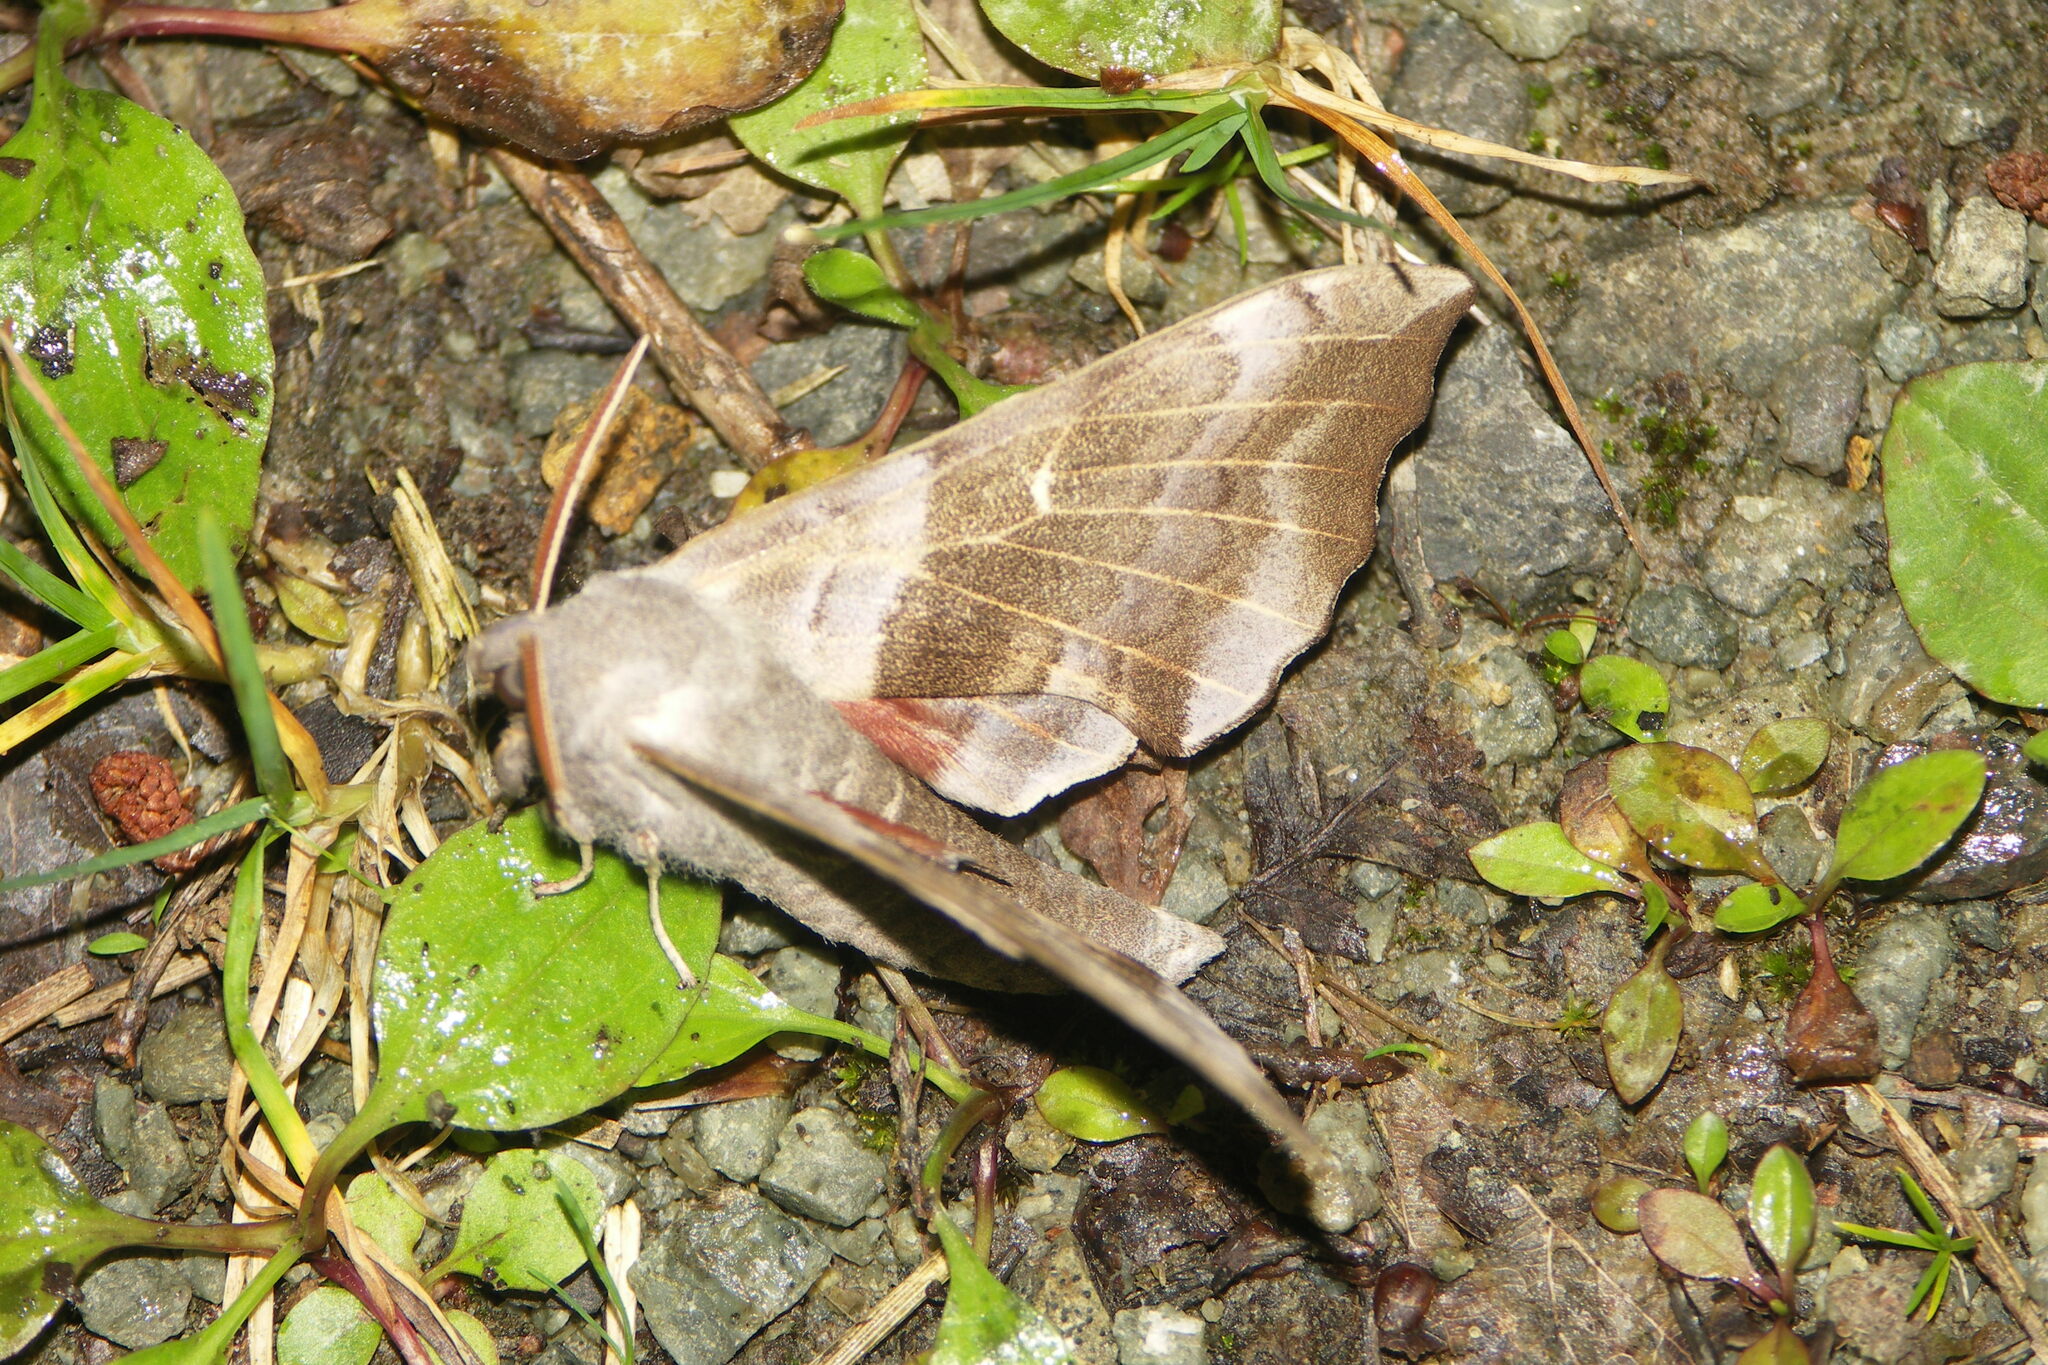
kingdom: Animalia
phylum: Arthropoda
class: Insecta
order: Lepidoptera
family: Sphingidae
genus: Laothoe
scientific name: Laothoe populi
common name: Poplar hawk-moth
